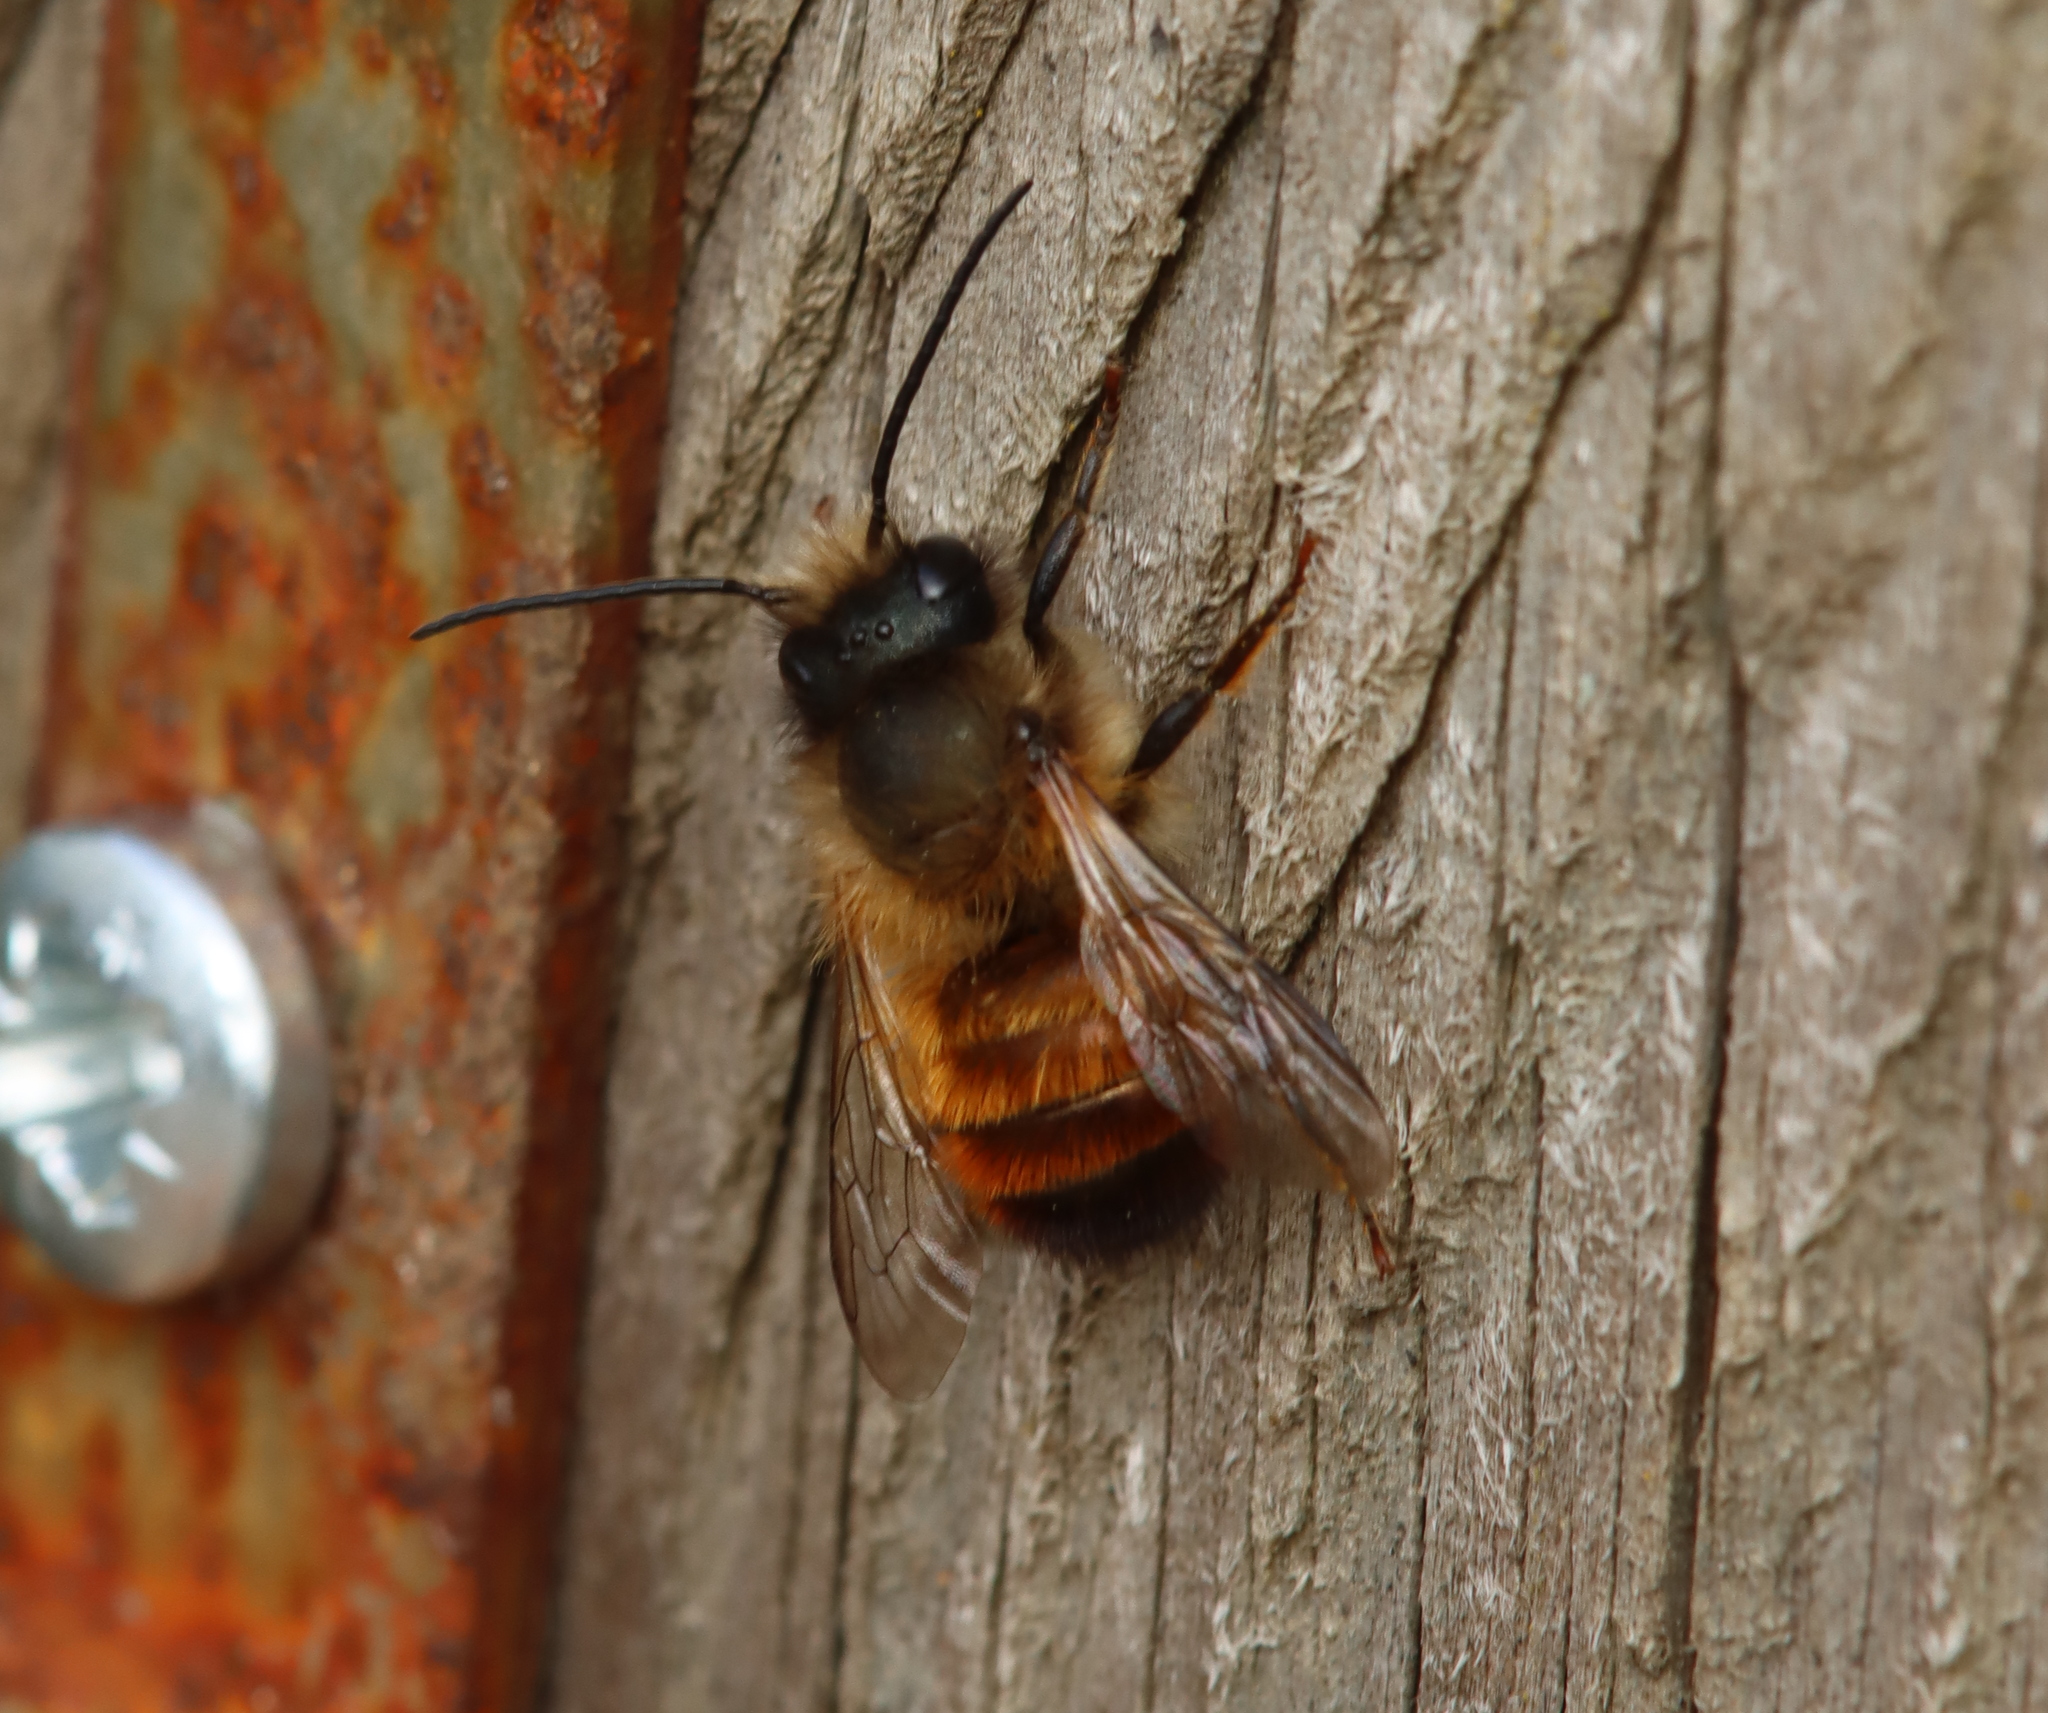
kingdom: Animalia
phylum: Arthropoda
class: Insecta
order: Hymenoptera
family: Megachilidae
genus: Osmia
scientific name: Osmia bicornis
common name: Red mason bee
